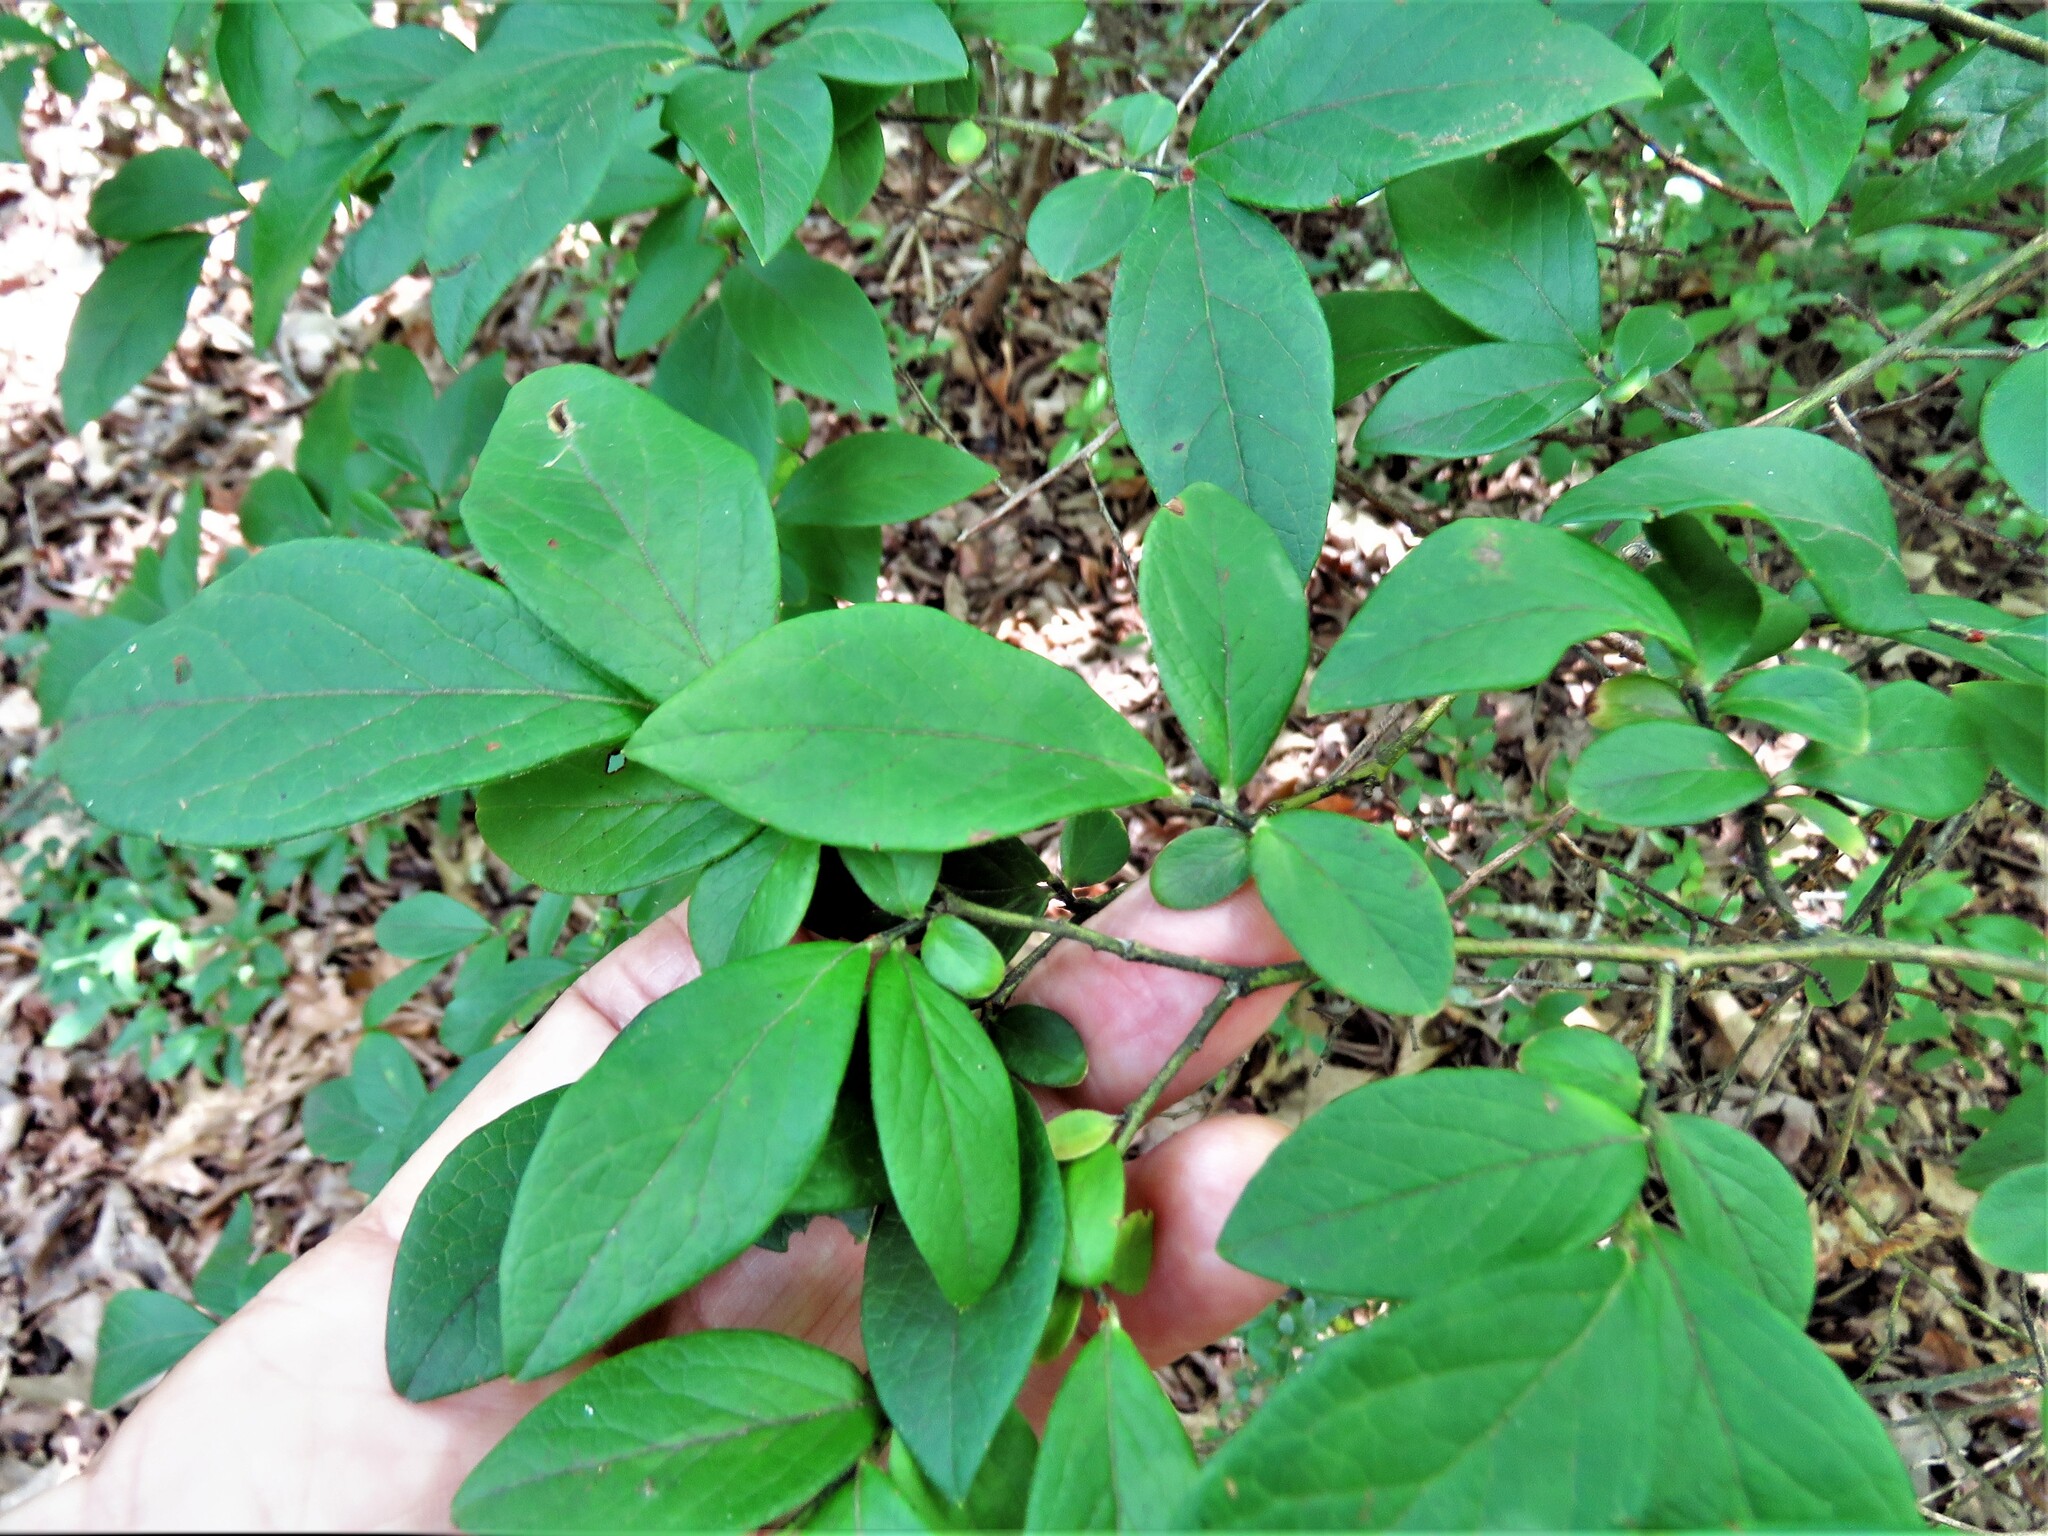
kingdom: Plantae
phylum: Tracheophyta
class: Magnoliopsida
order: Ericales
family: Ericaceae
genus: Vaccinium
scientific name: Vaccinium pallidum
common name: Blue ridge blueberry
